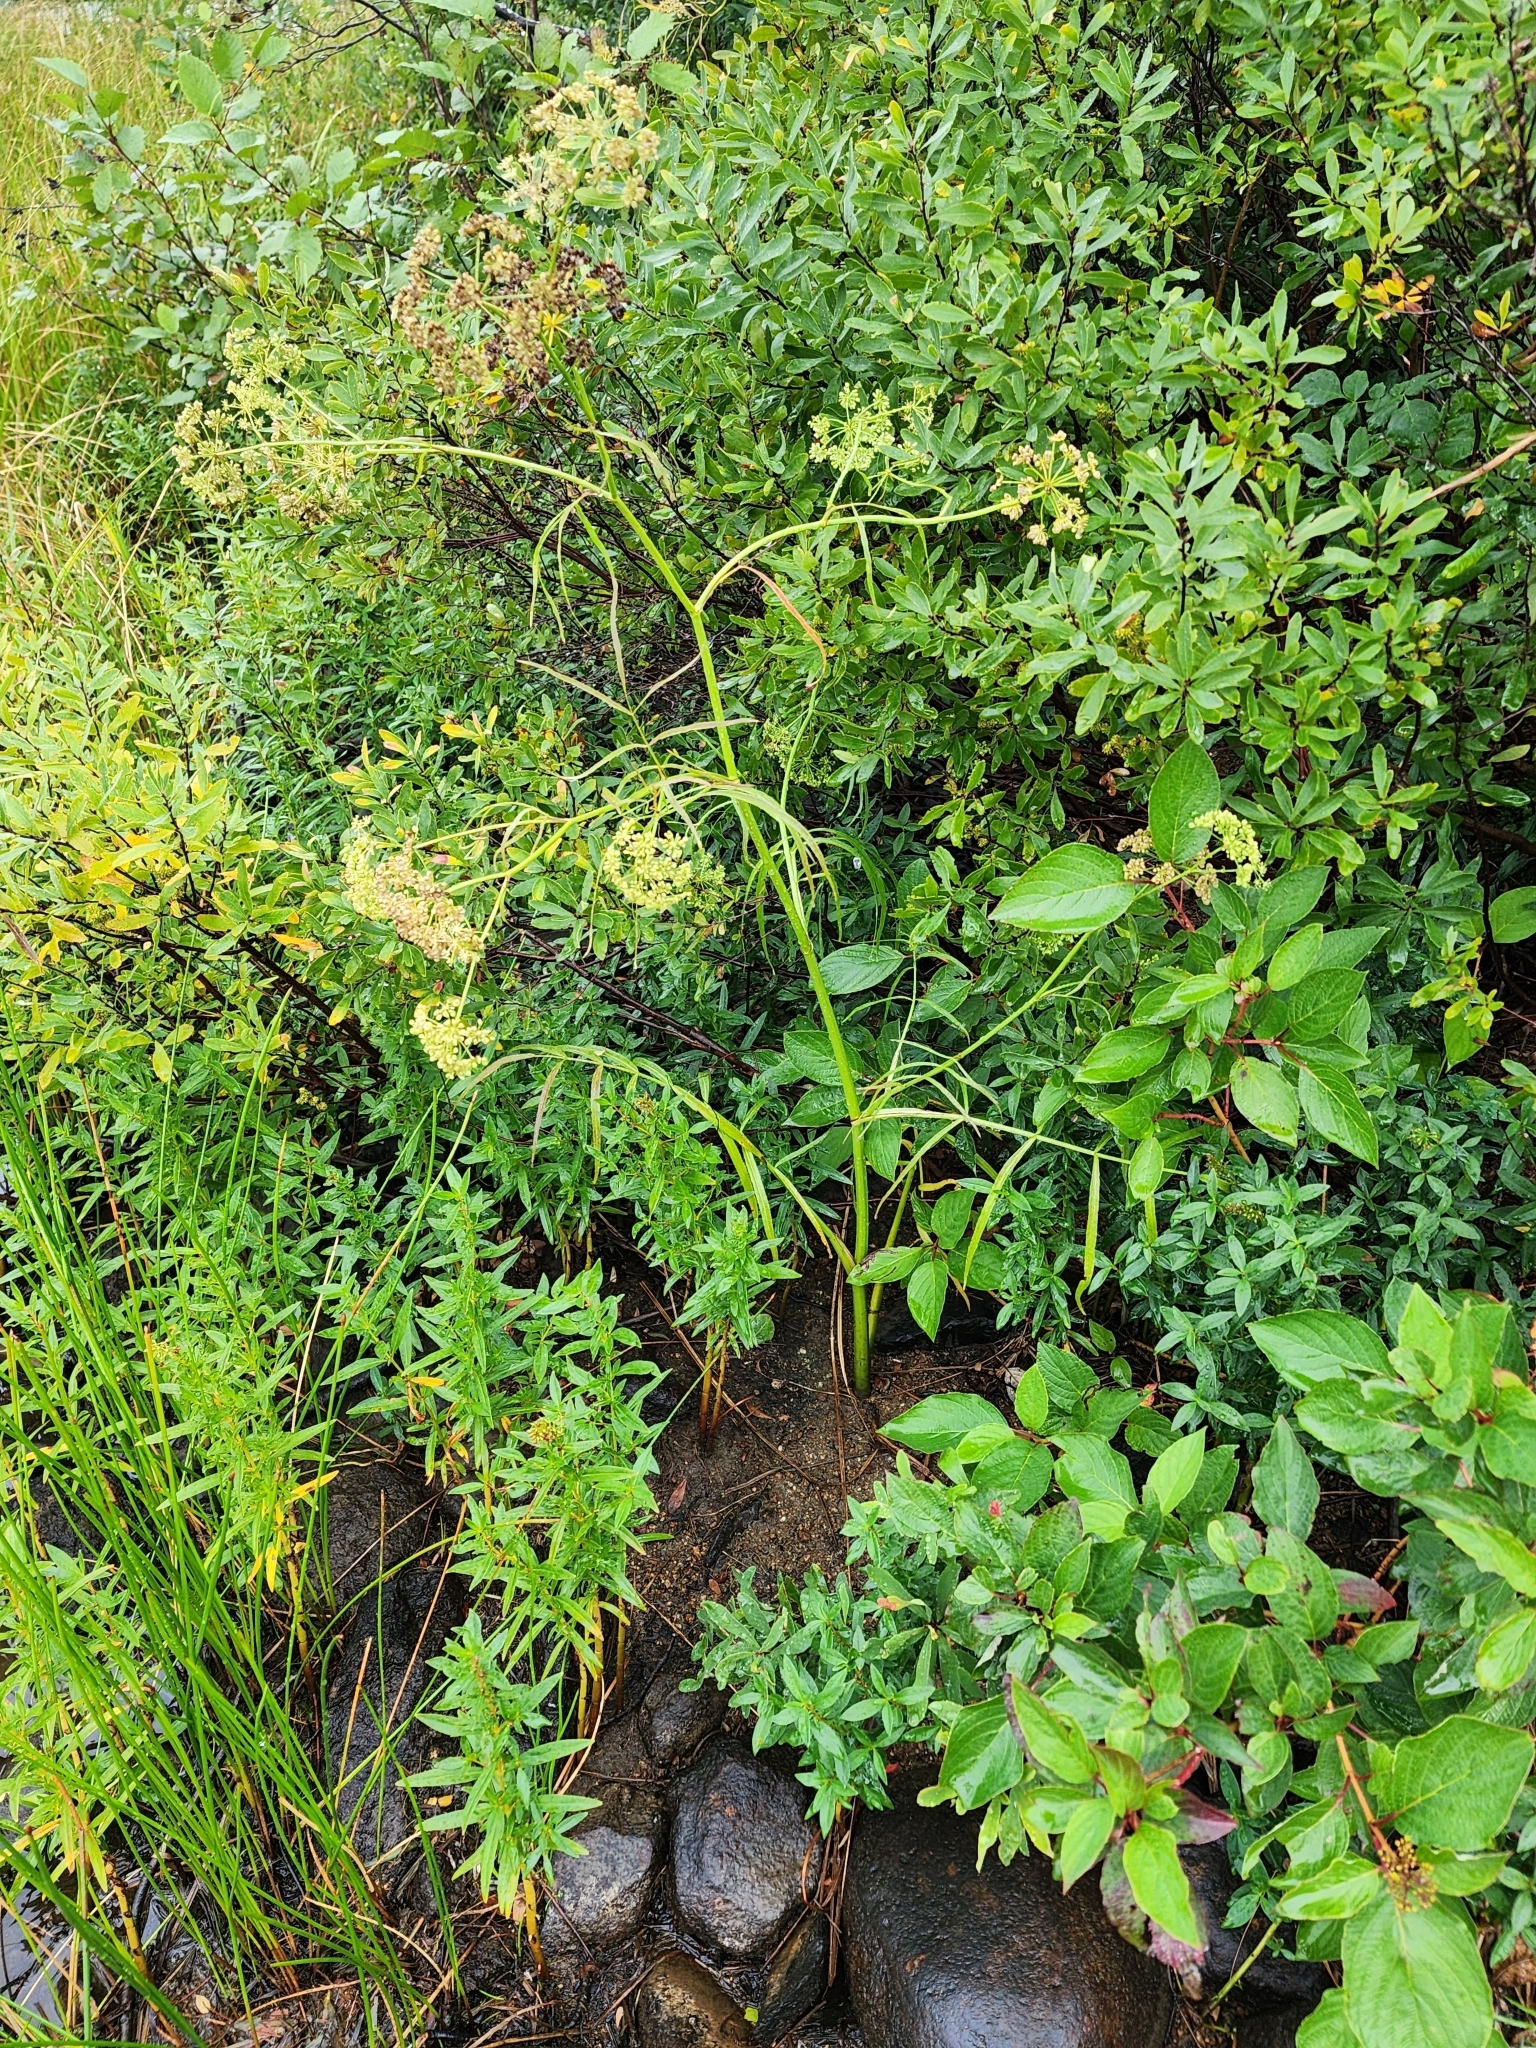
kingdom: Plantae
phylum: Tracheophyta
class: Magnoliopsida
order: Apiales
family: Apiaceae
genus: Sium
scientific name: Sium suave
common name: Hemlock water-parsnip
